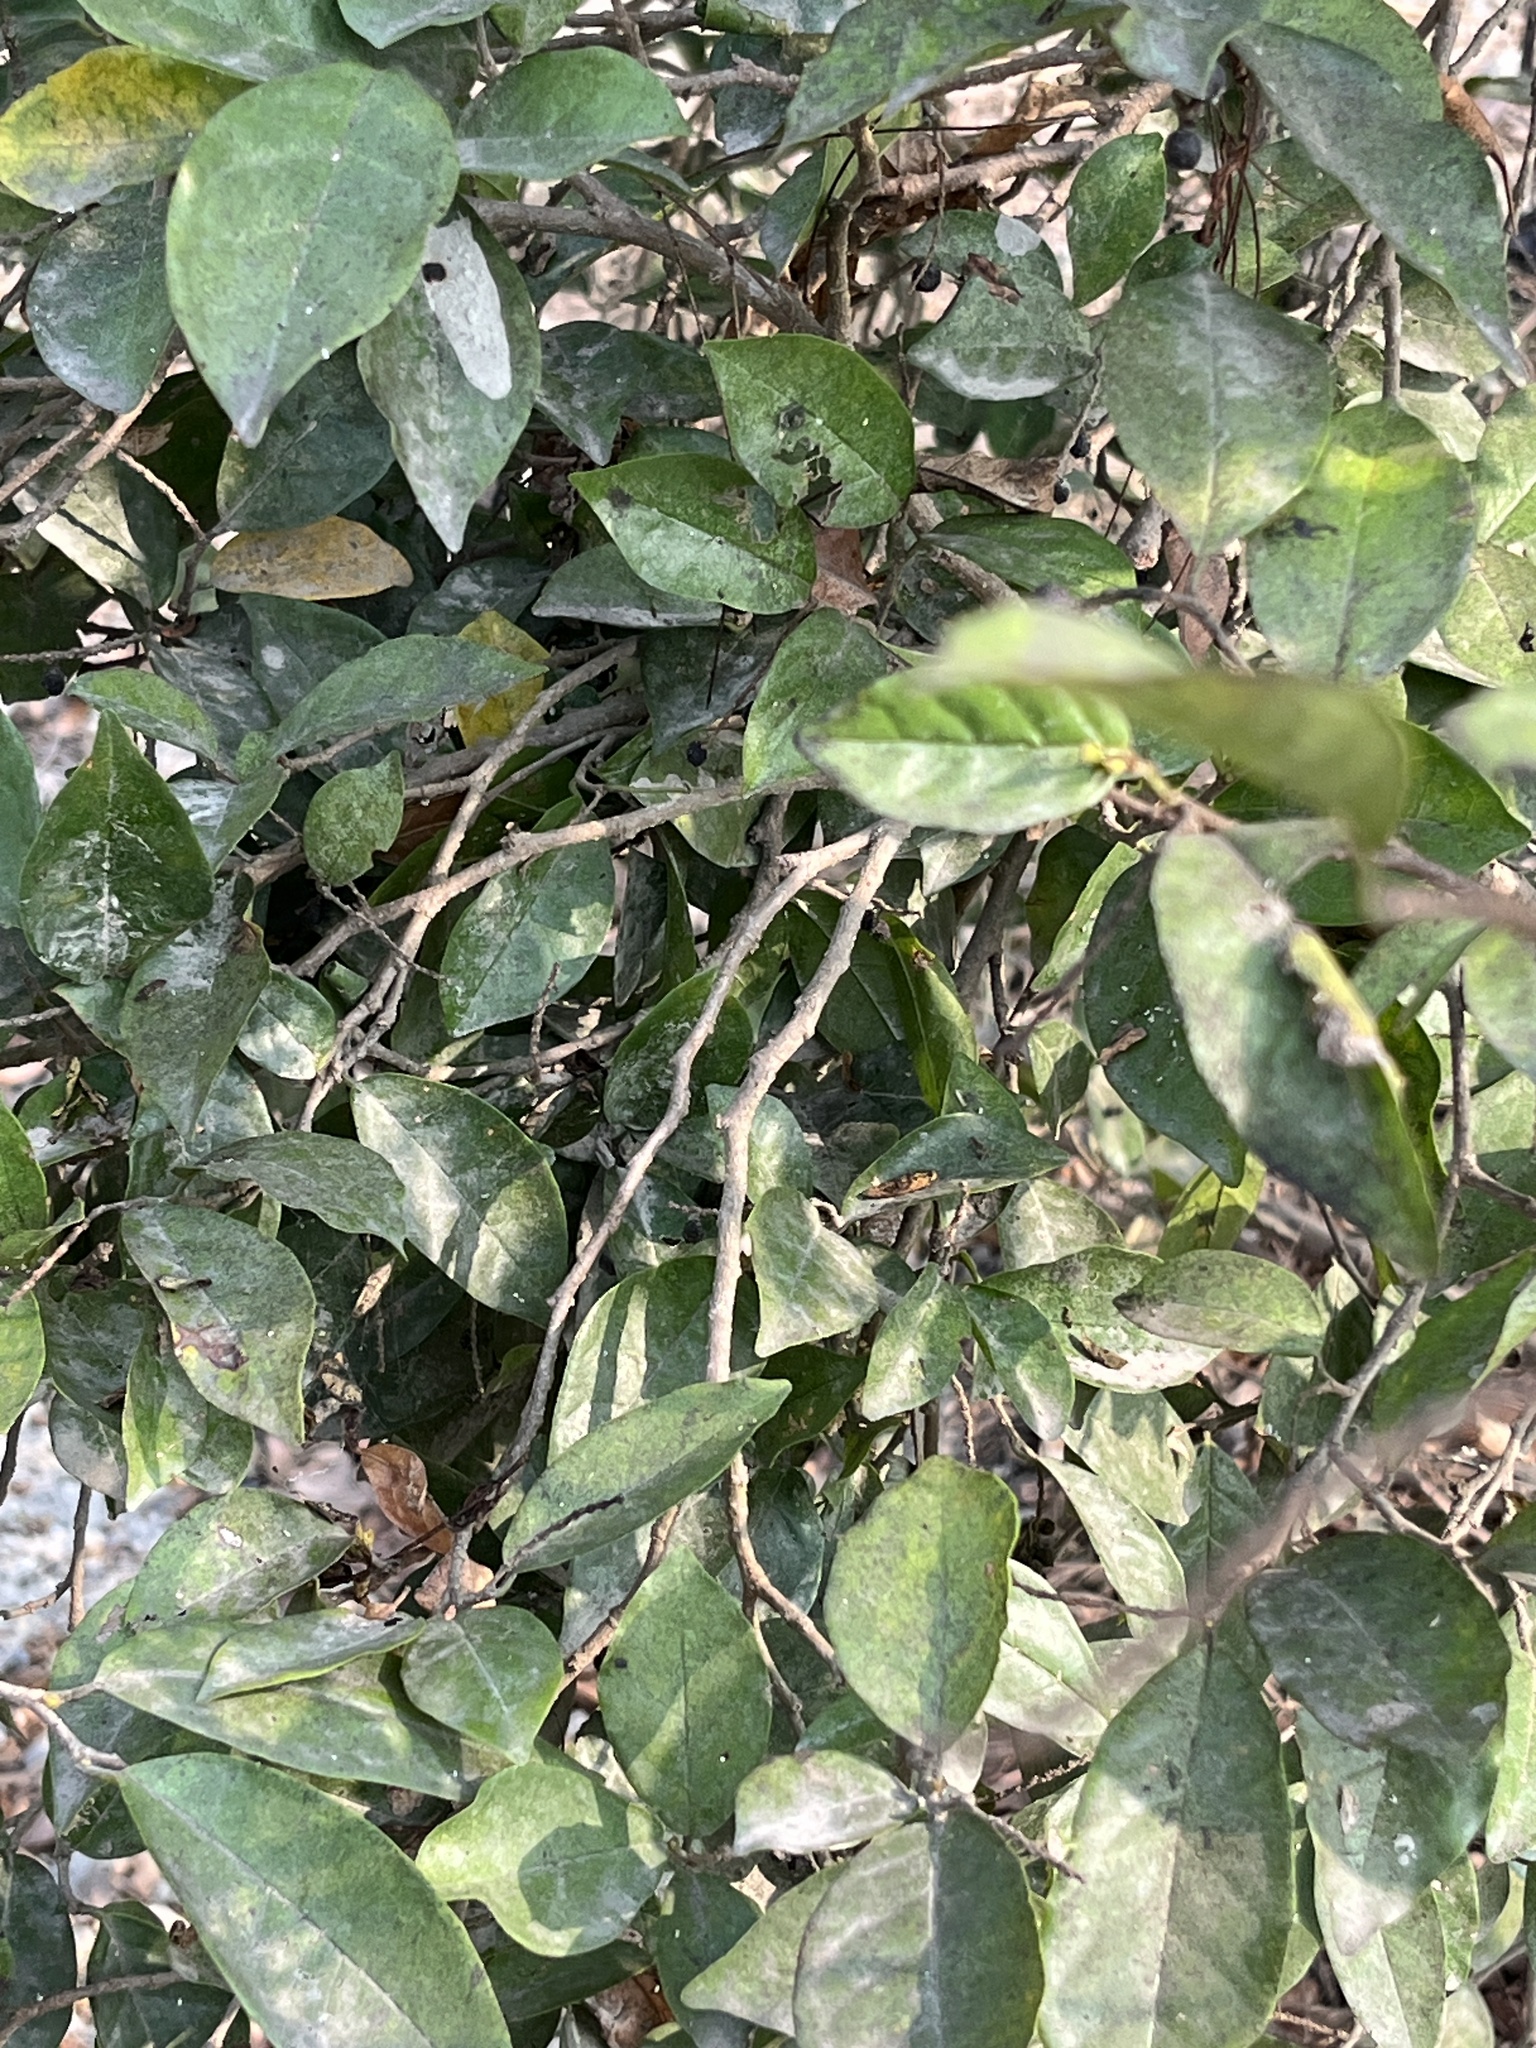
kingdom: Plantae
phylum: Tracheophyta
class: Magnoliopsida
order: Malpighiales
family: Phyllanthaceae
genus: Antidesma
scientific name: Antidesma montanum
